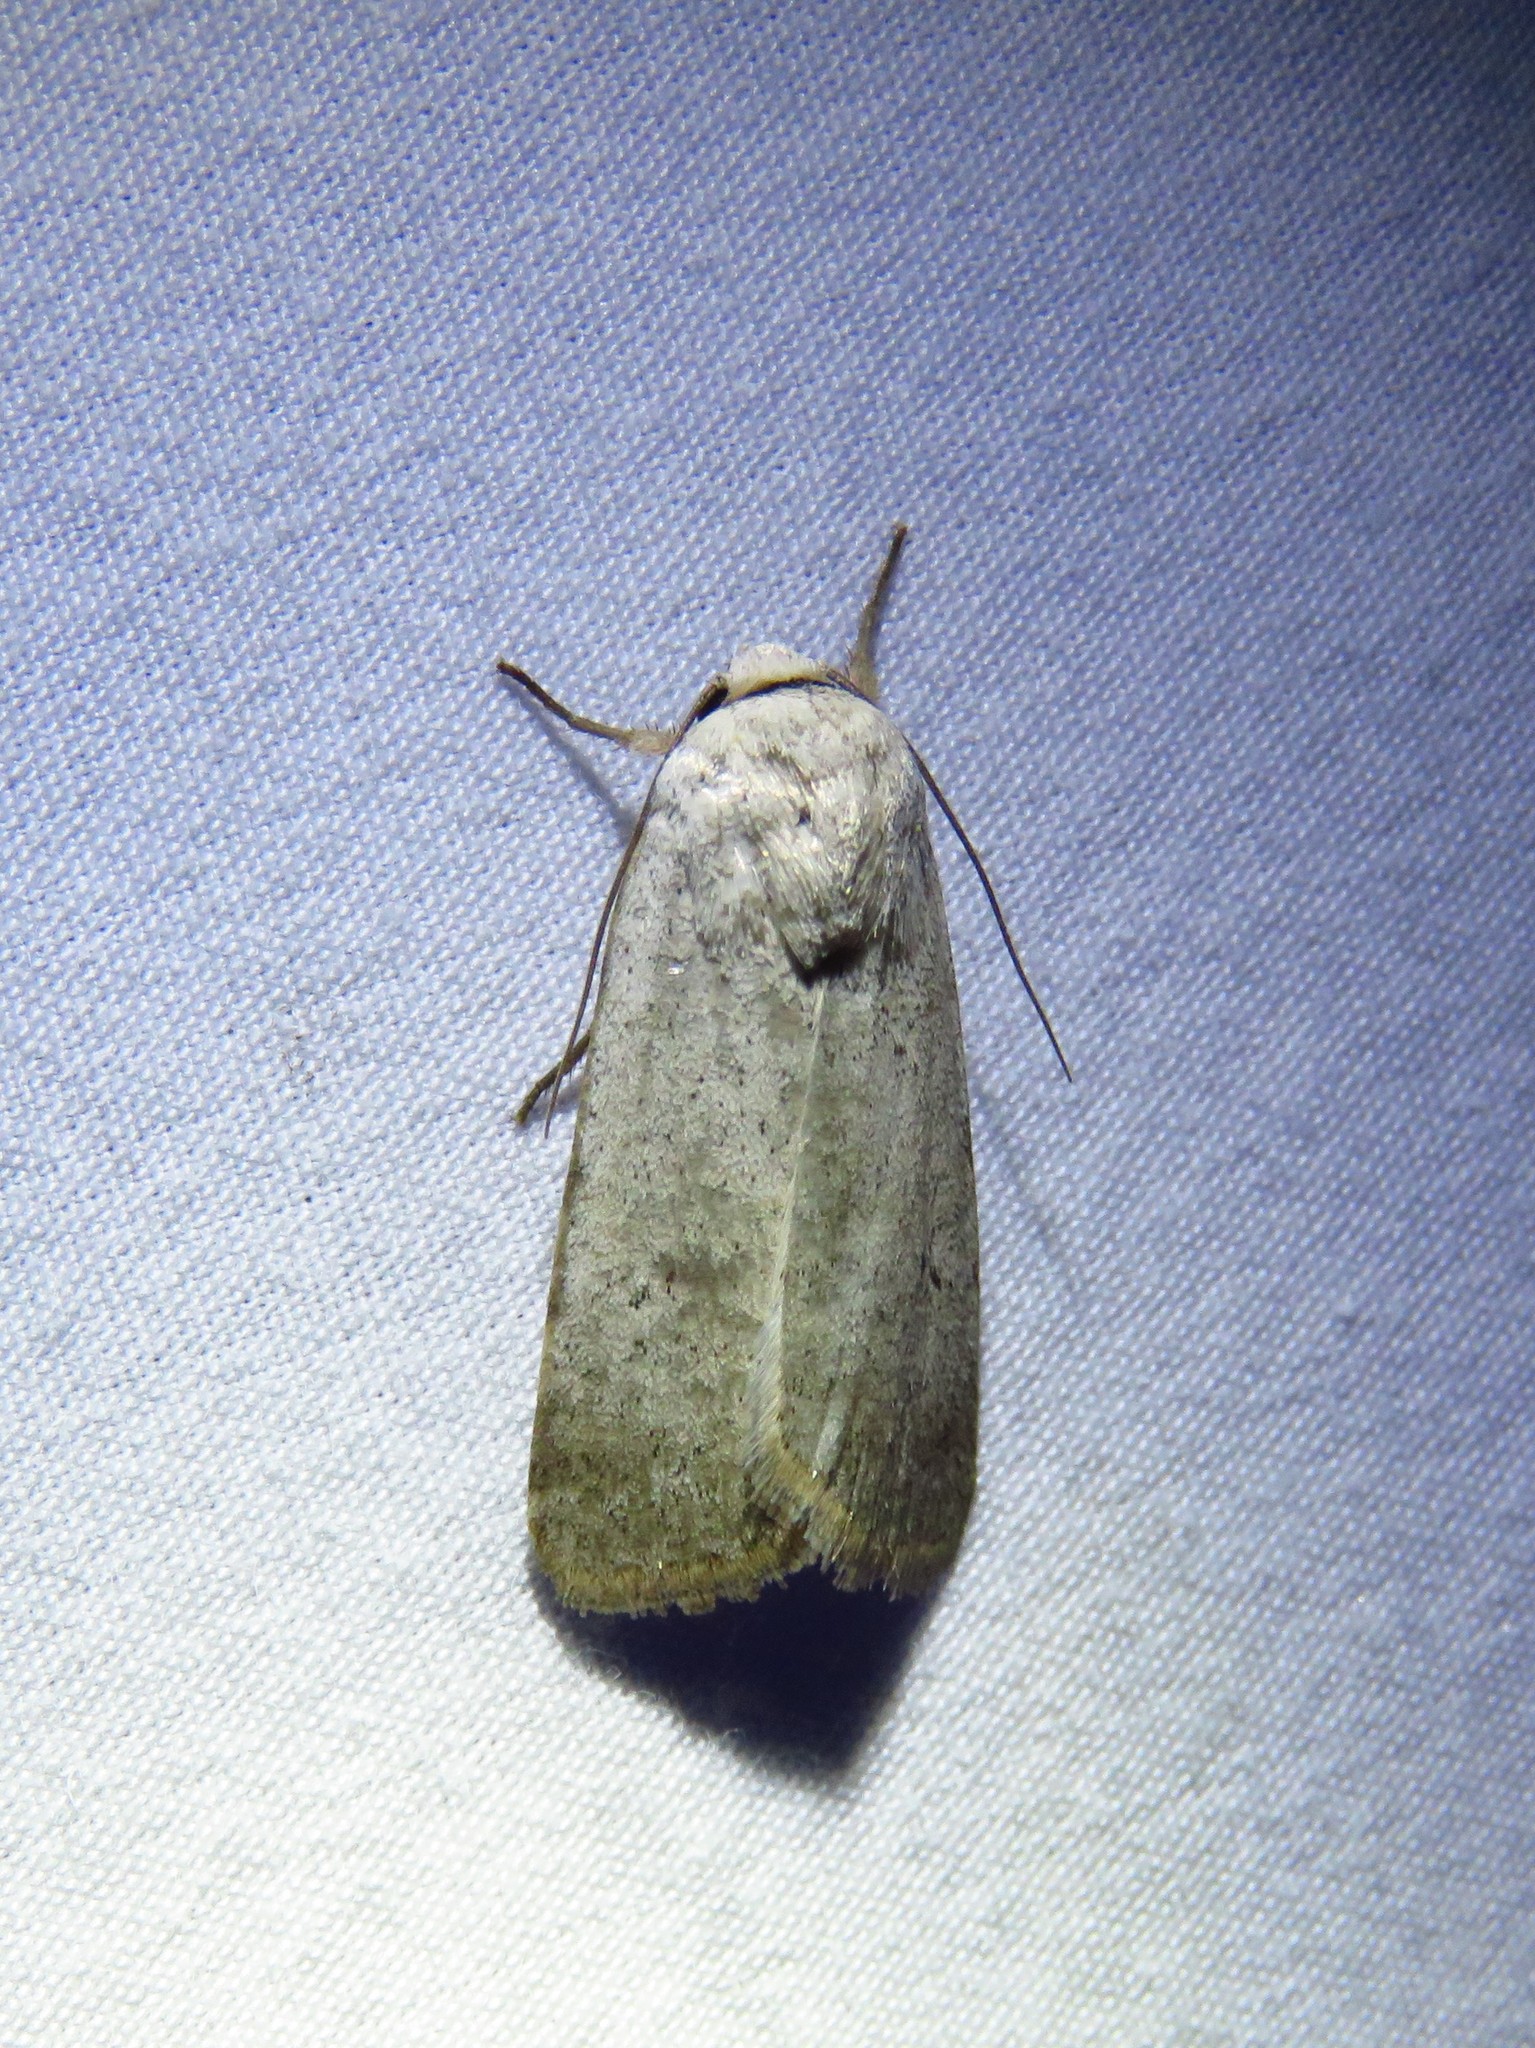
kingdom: Animalia
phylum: Arthropoda
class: Insecta
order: Lepidoptera
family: Noctuidae
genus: Anicla
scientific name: Anicla digna
